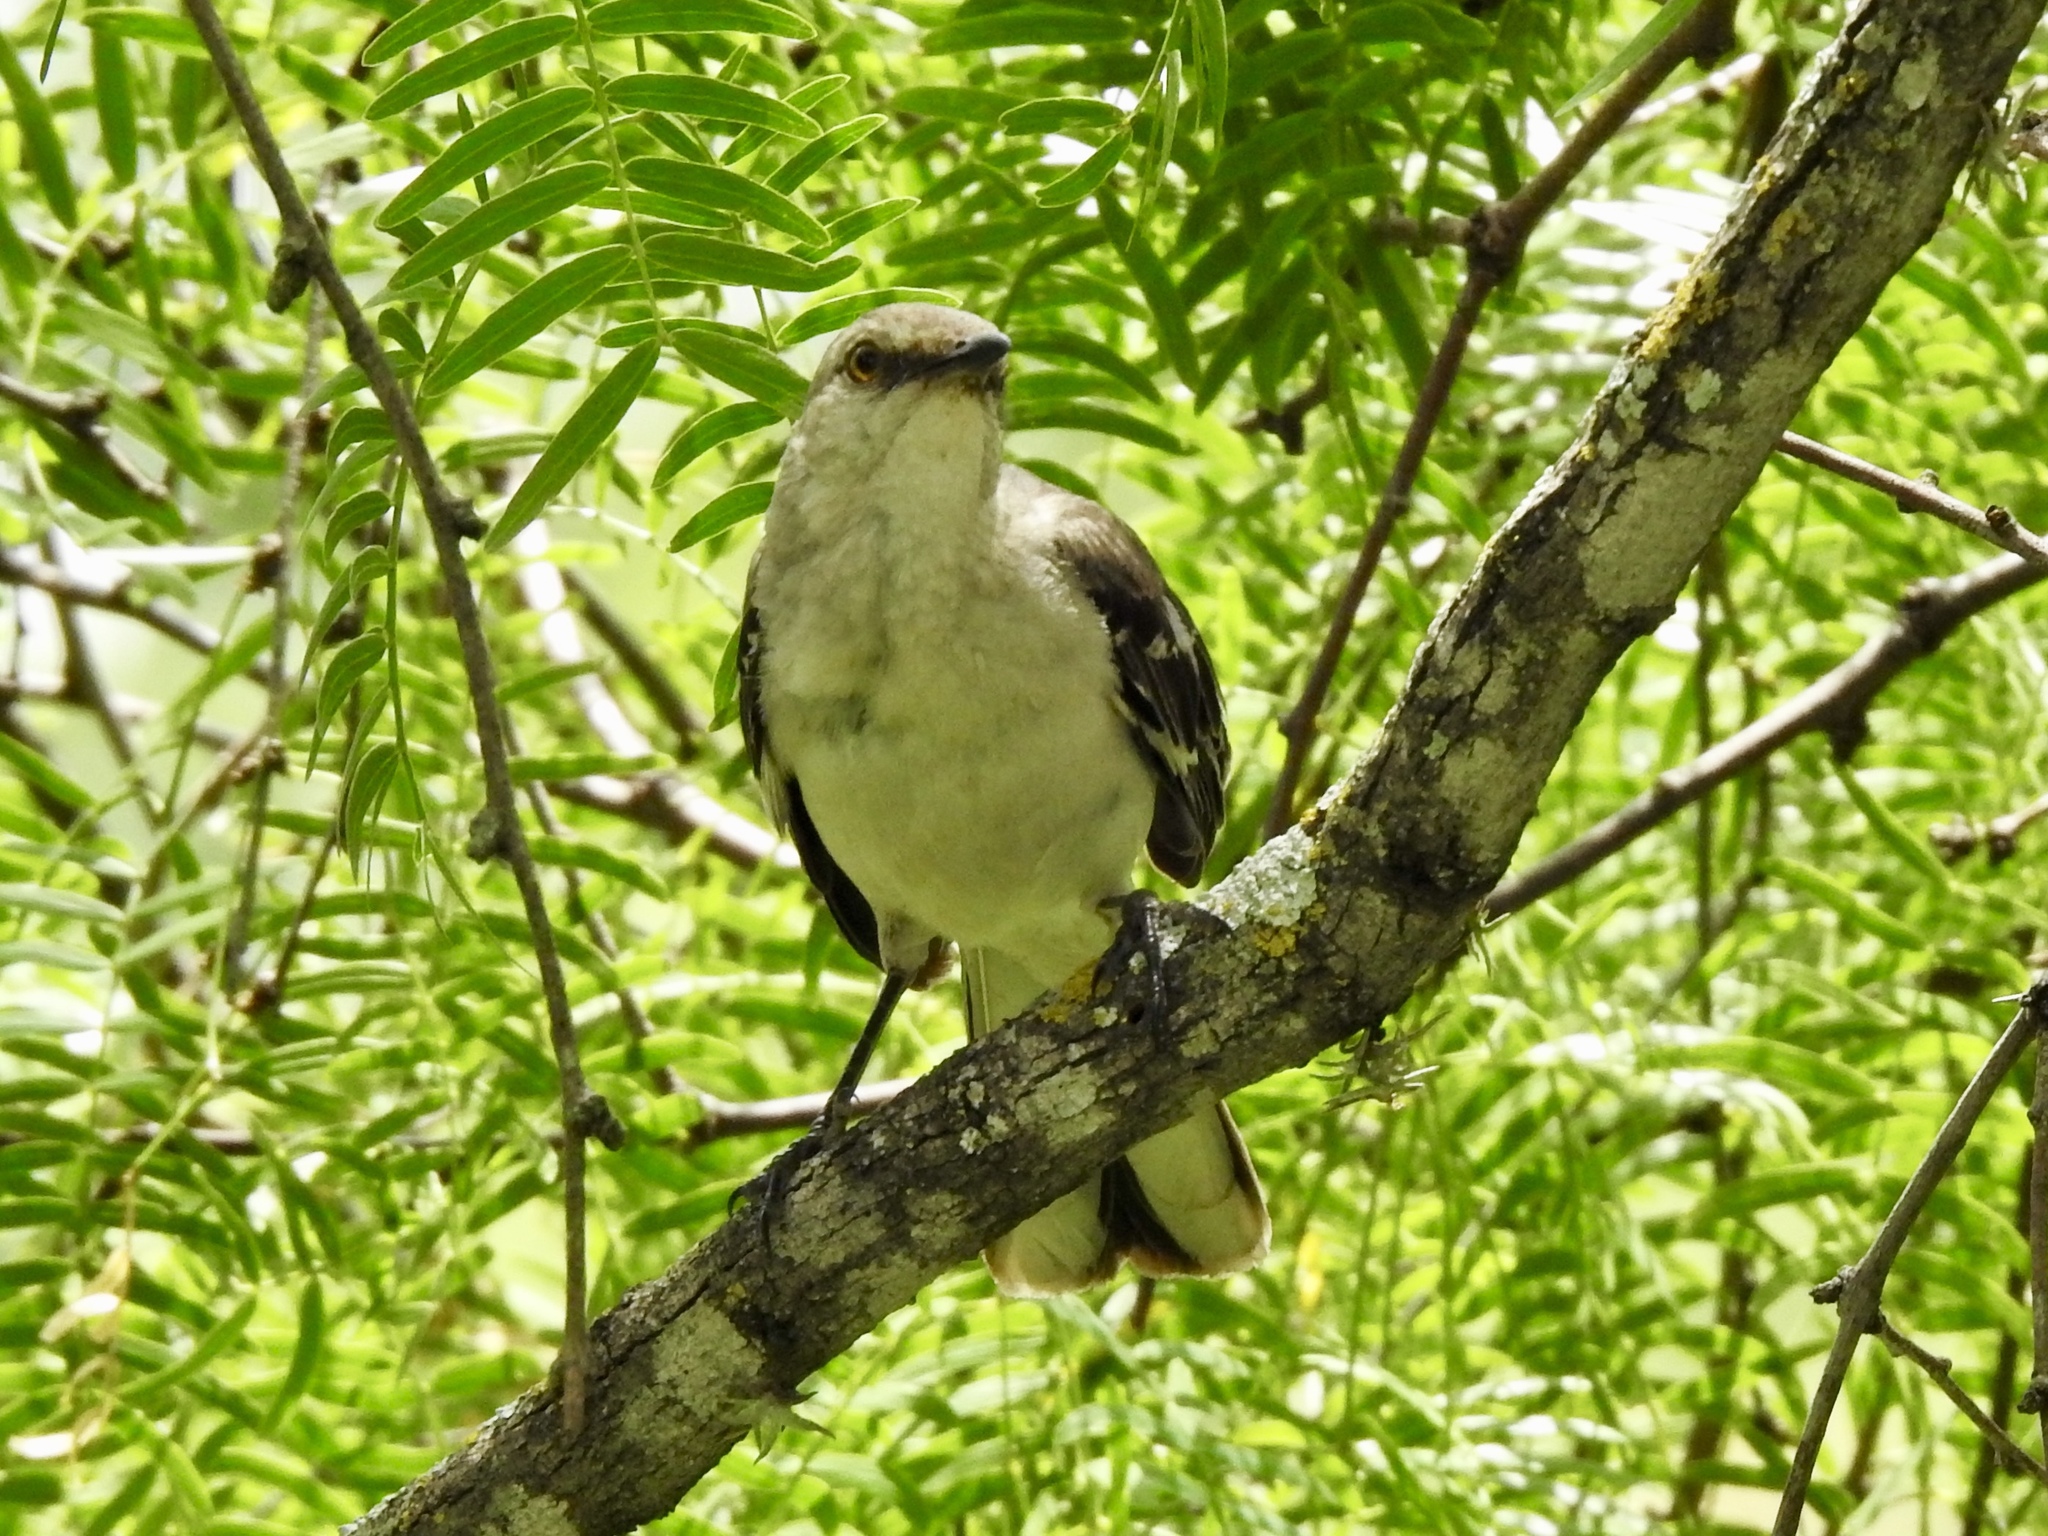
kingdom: Animalia
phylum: Chordata
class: Aves
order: Passeriformes
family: Mimidae
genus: Mimus
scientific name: Mimus polyglottos
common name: Northern mockingbird
